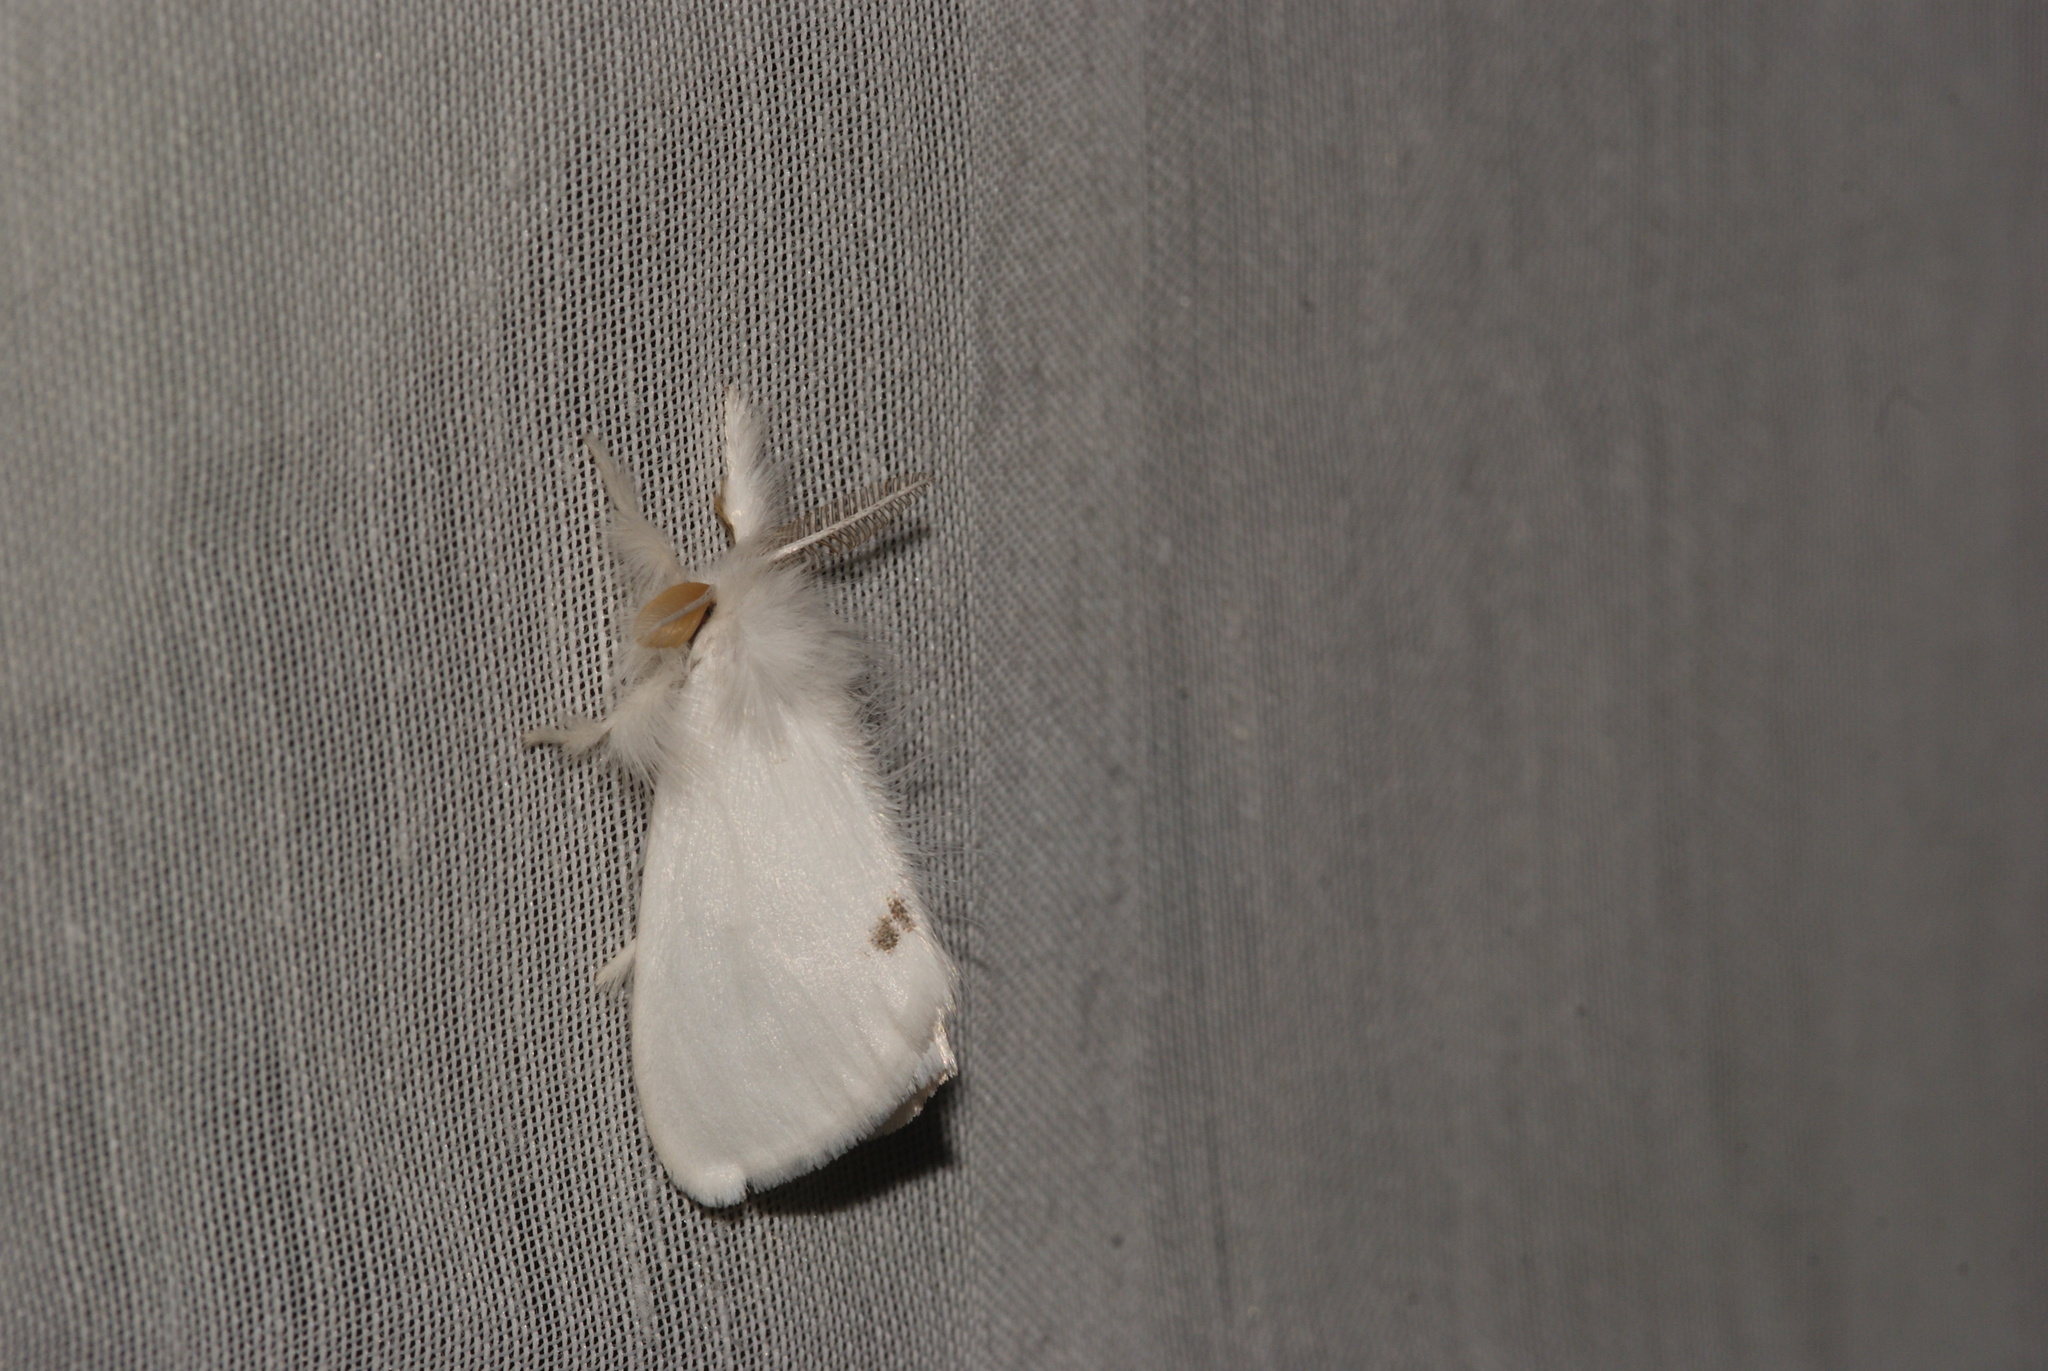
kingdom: Animalia
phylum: Arthropoda
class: Insecta
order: Lepidoptera
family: Erebidae
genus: Sphrageidus
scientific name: Sphrageidus similis
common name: Yellow-tail
